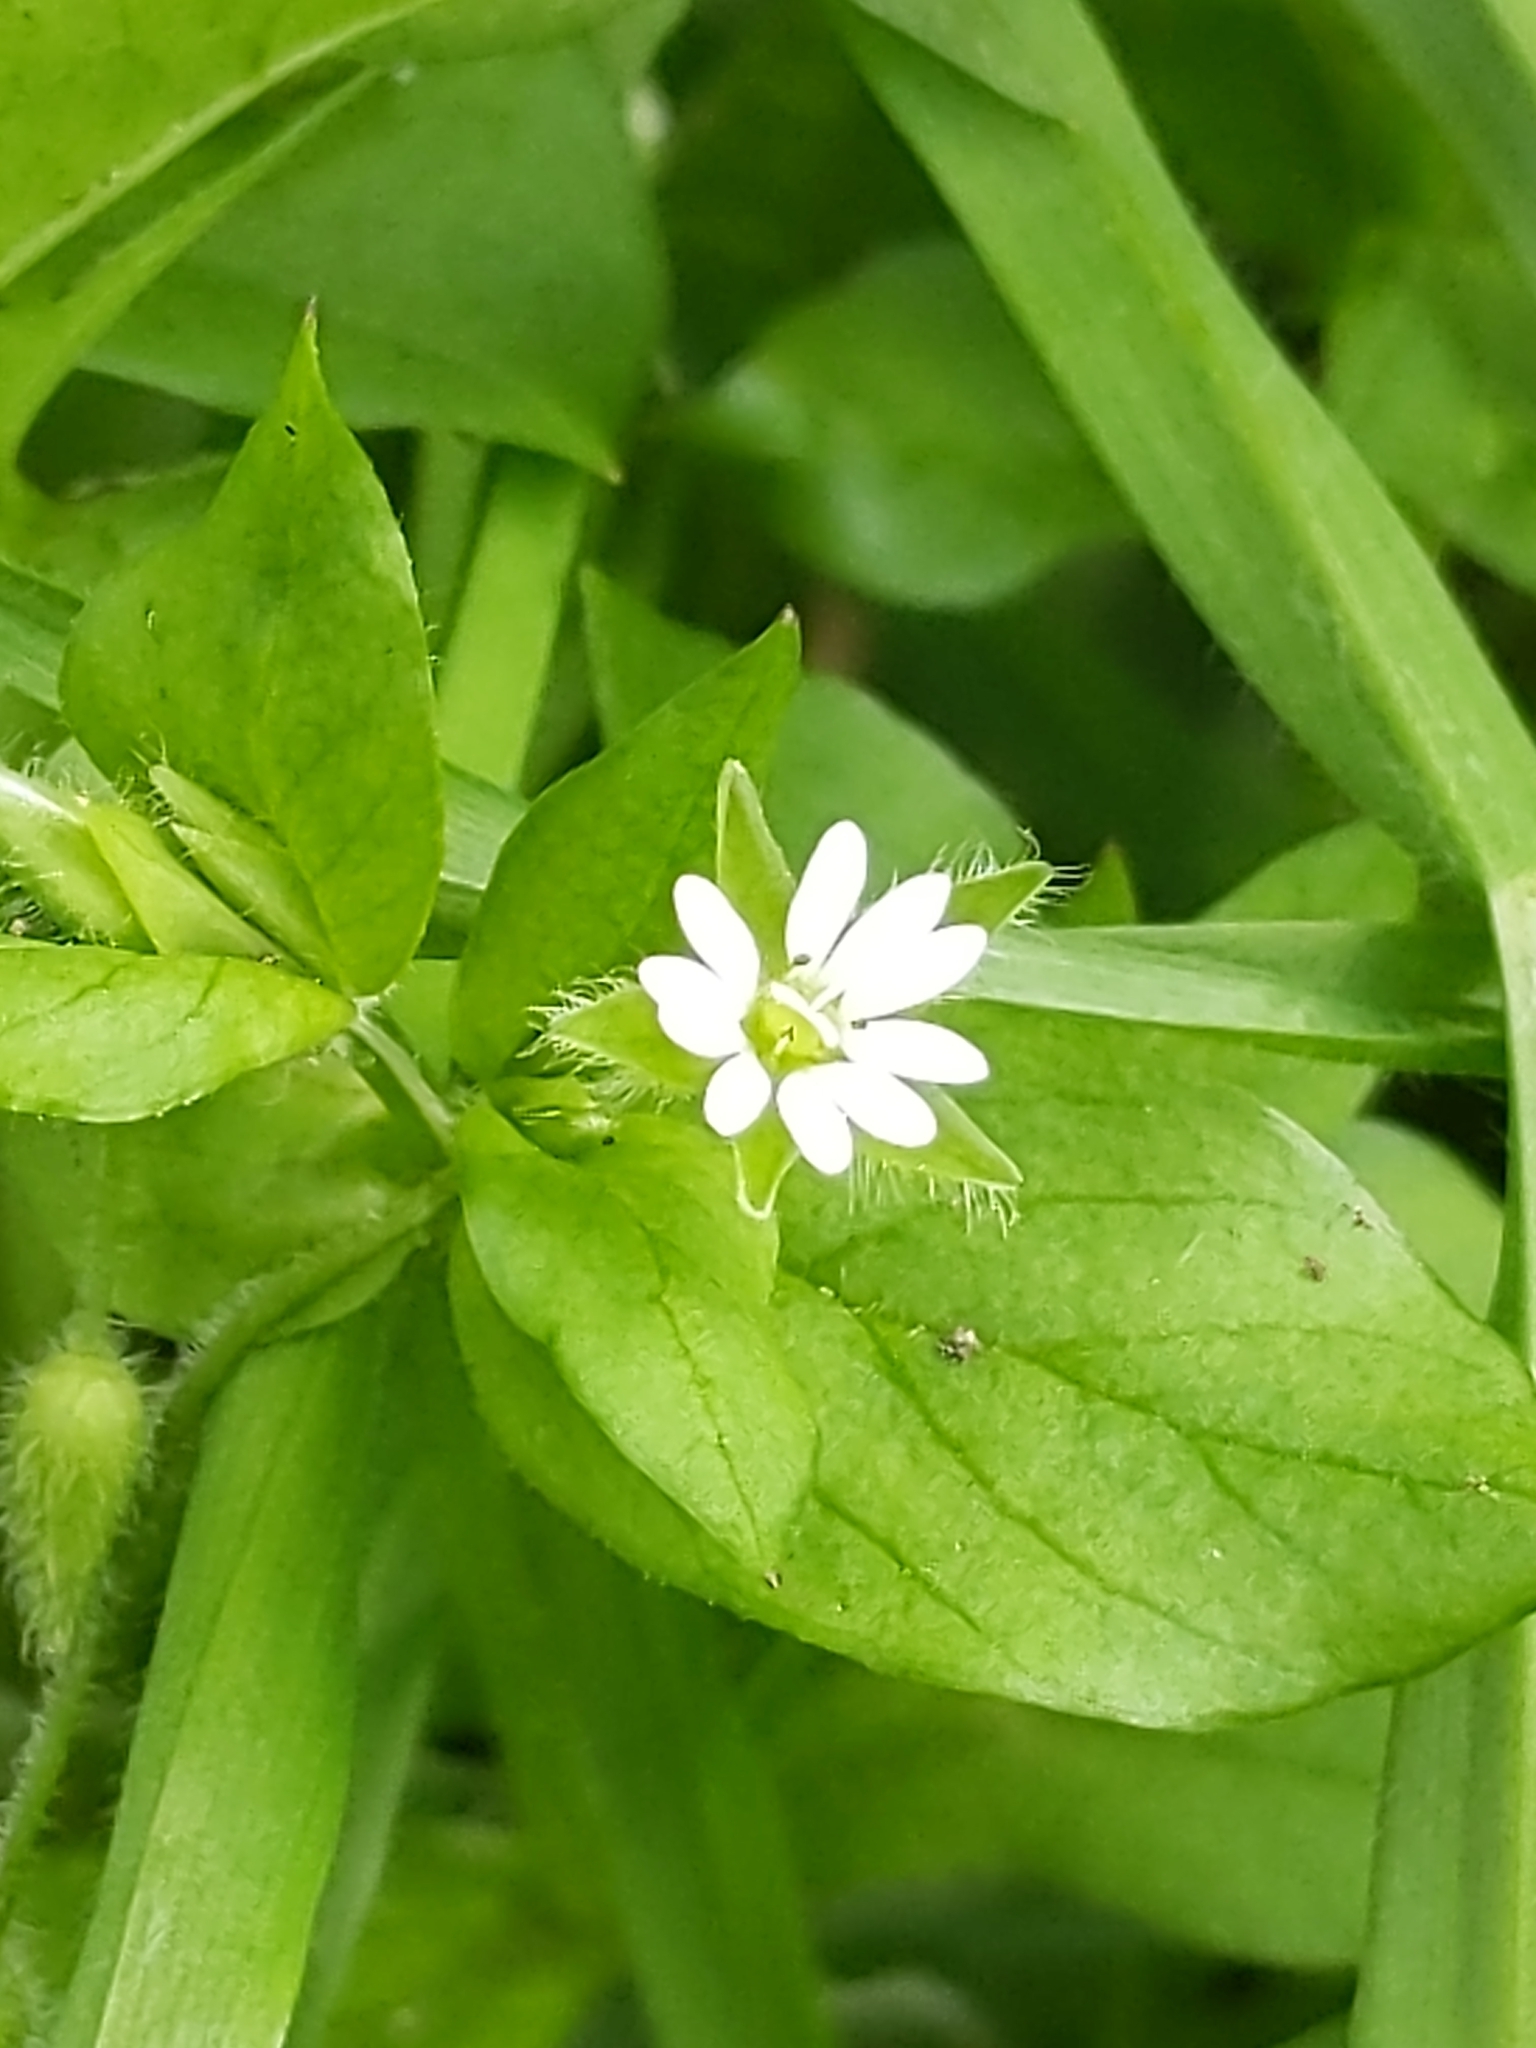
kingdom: Plantae
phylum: Tracheophyta
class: Magnoliopsida
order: Caryophyllales
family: Caryophyllaceae
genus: Stellaria
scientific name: Stellaria media
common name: Common chickweed
